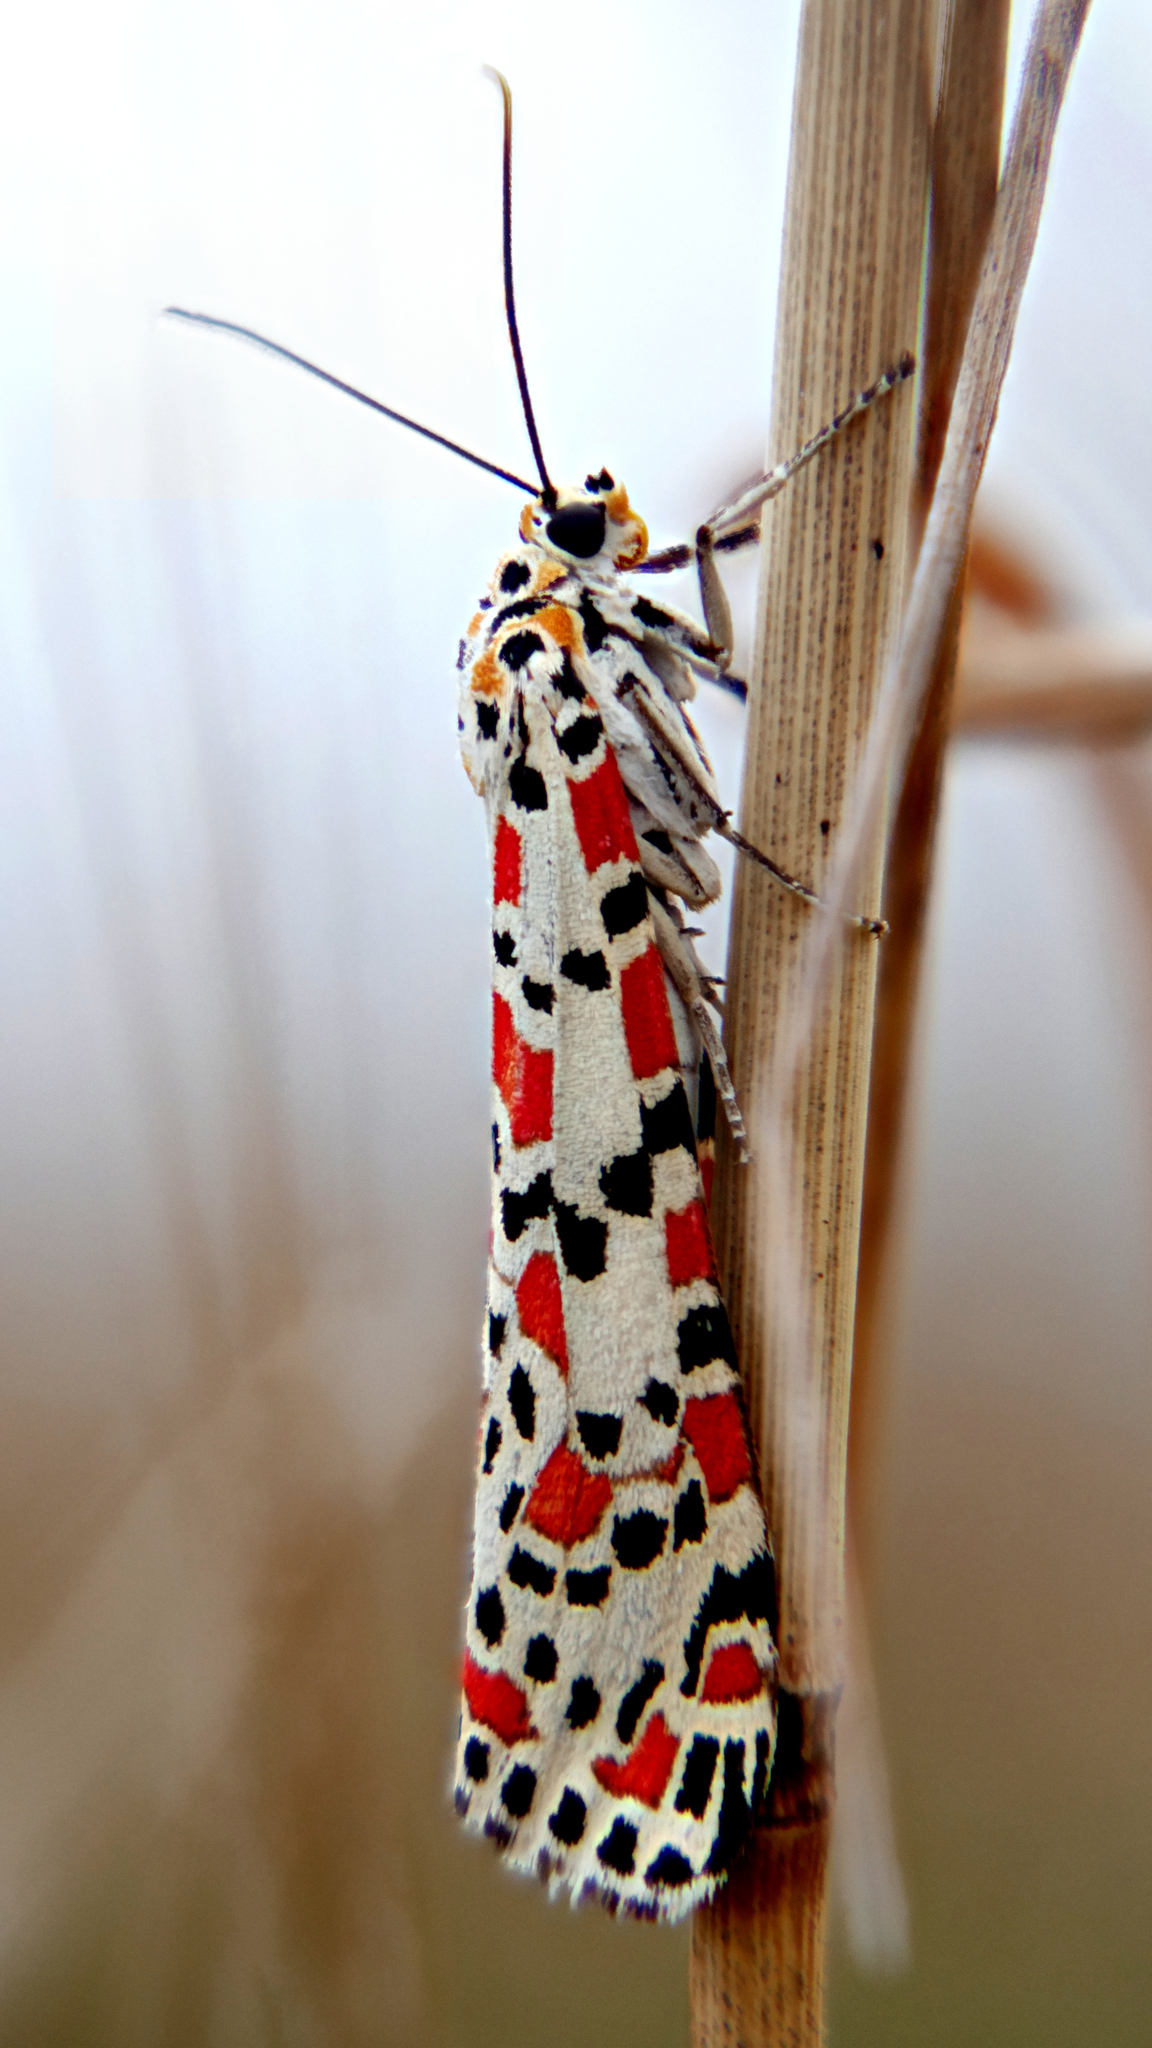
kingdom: Animalia
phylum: Arthropoda
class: Insecta
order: Lepidoptera
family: Erebidae
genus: Utetheisa
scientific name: Utetheisa pulchella
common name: Crimson speckled
